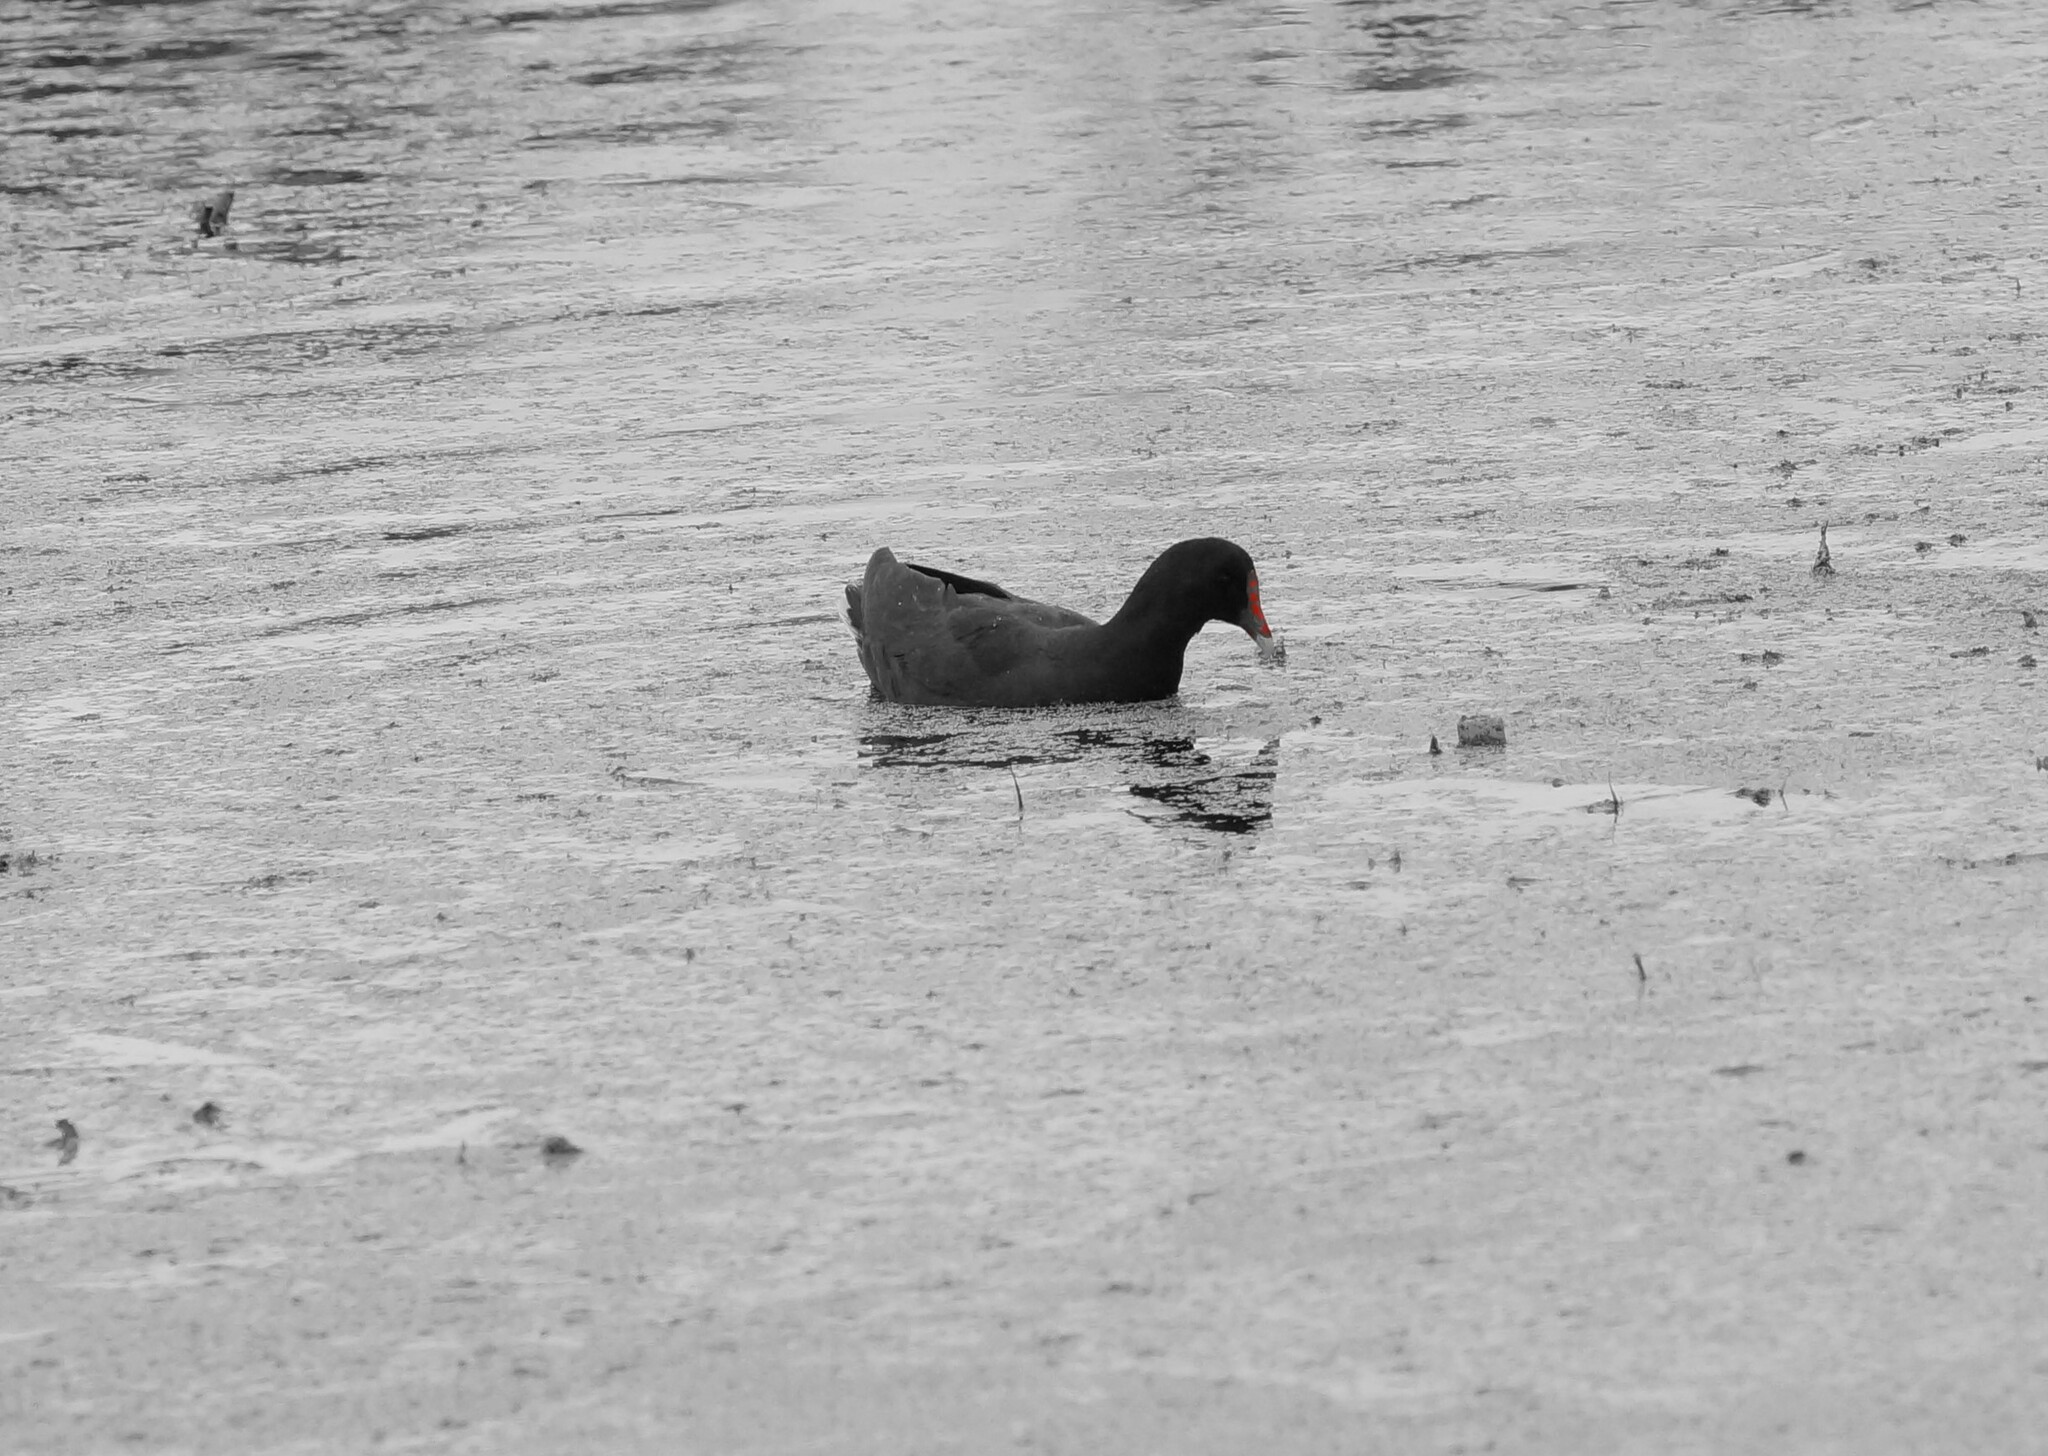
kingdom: Animalia
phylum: Chordata
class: Aves
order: Gruiformes
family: Rallidae
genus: Gallinula
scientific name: Gallinula tenebrosa
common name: Dusky moorhen
